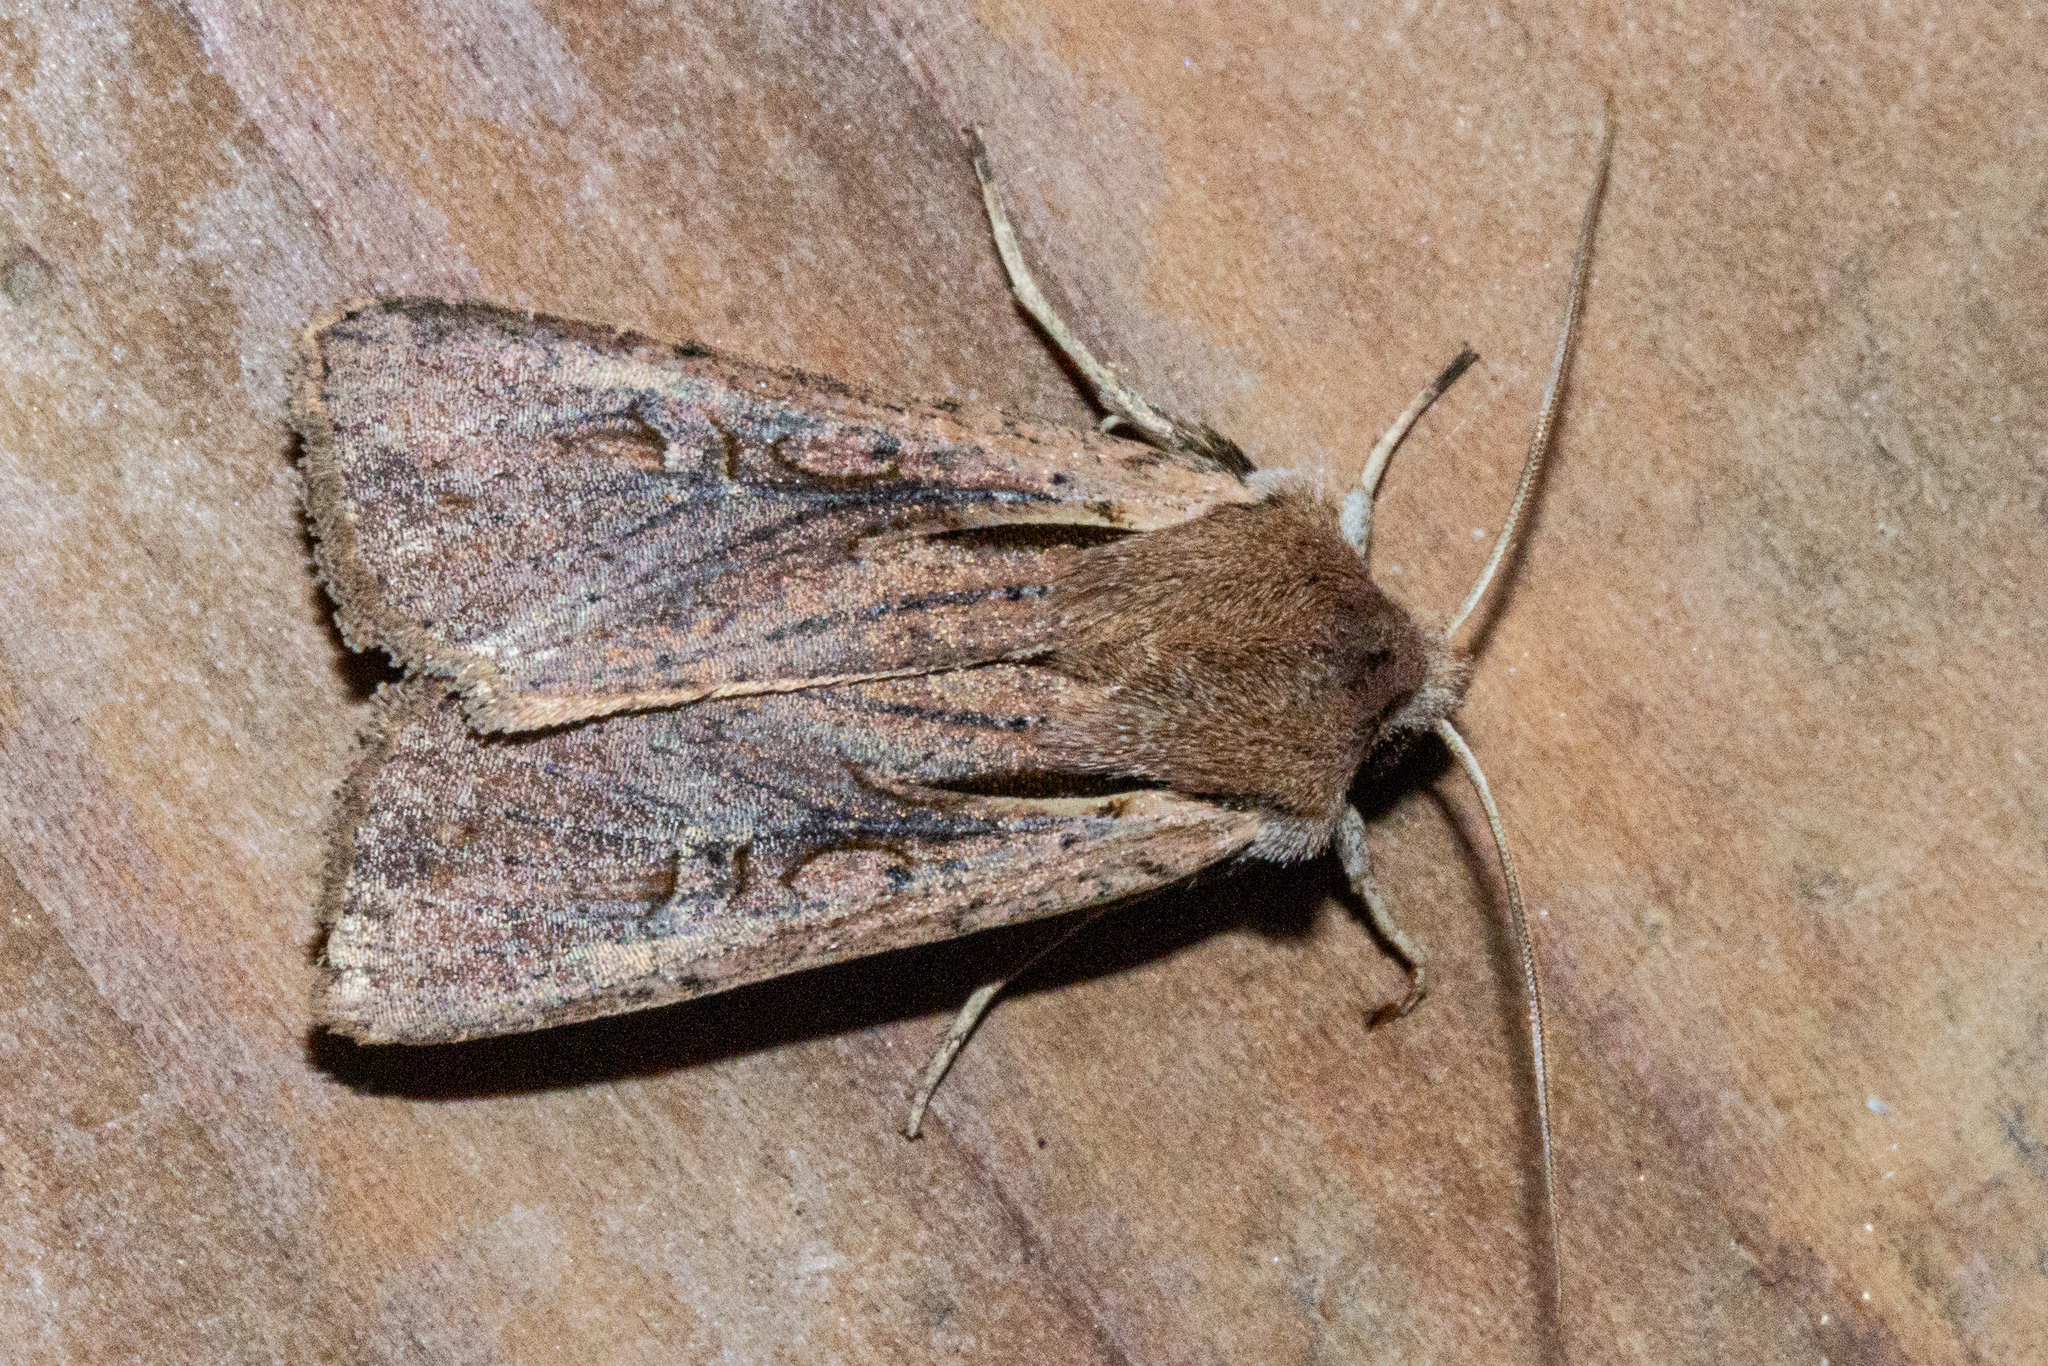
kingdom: Animalia
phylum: Arthropoda
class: Insecta
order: Lepidoptera
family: Noctuidae
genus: Ichneutica
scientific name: Ichneutica atristriga
